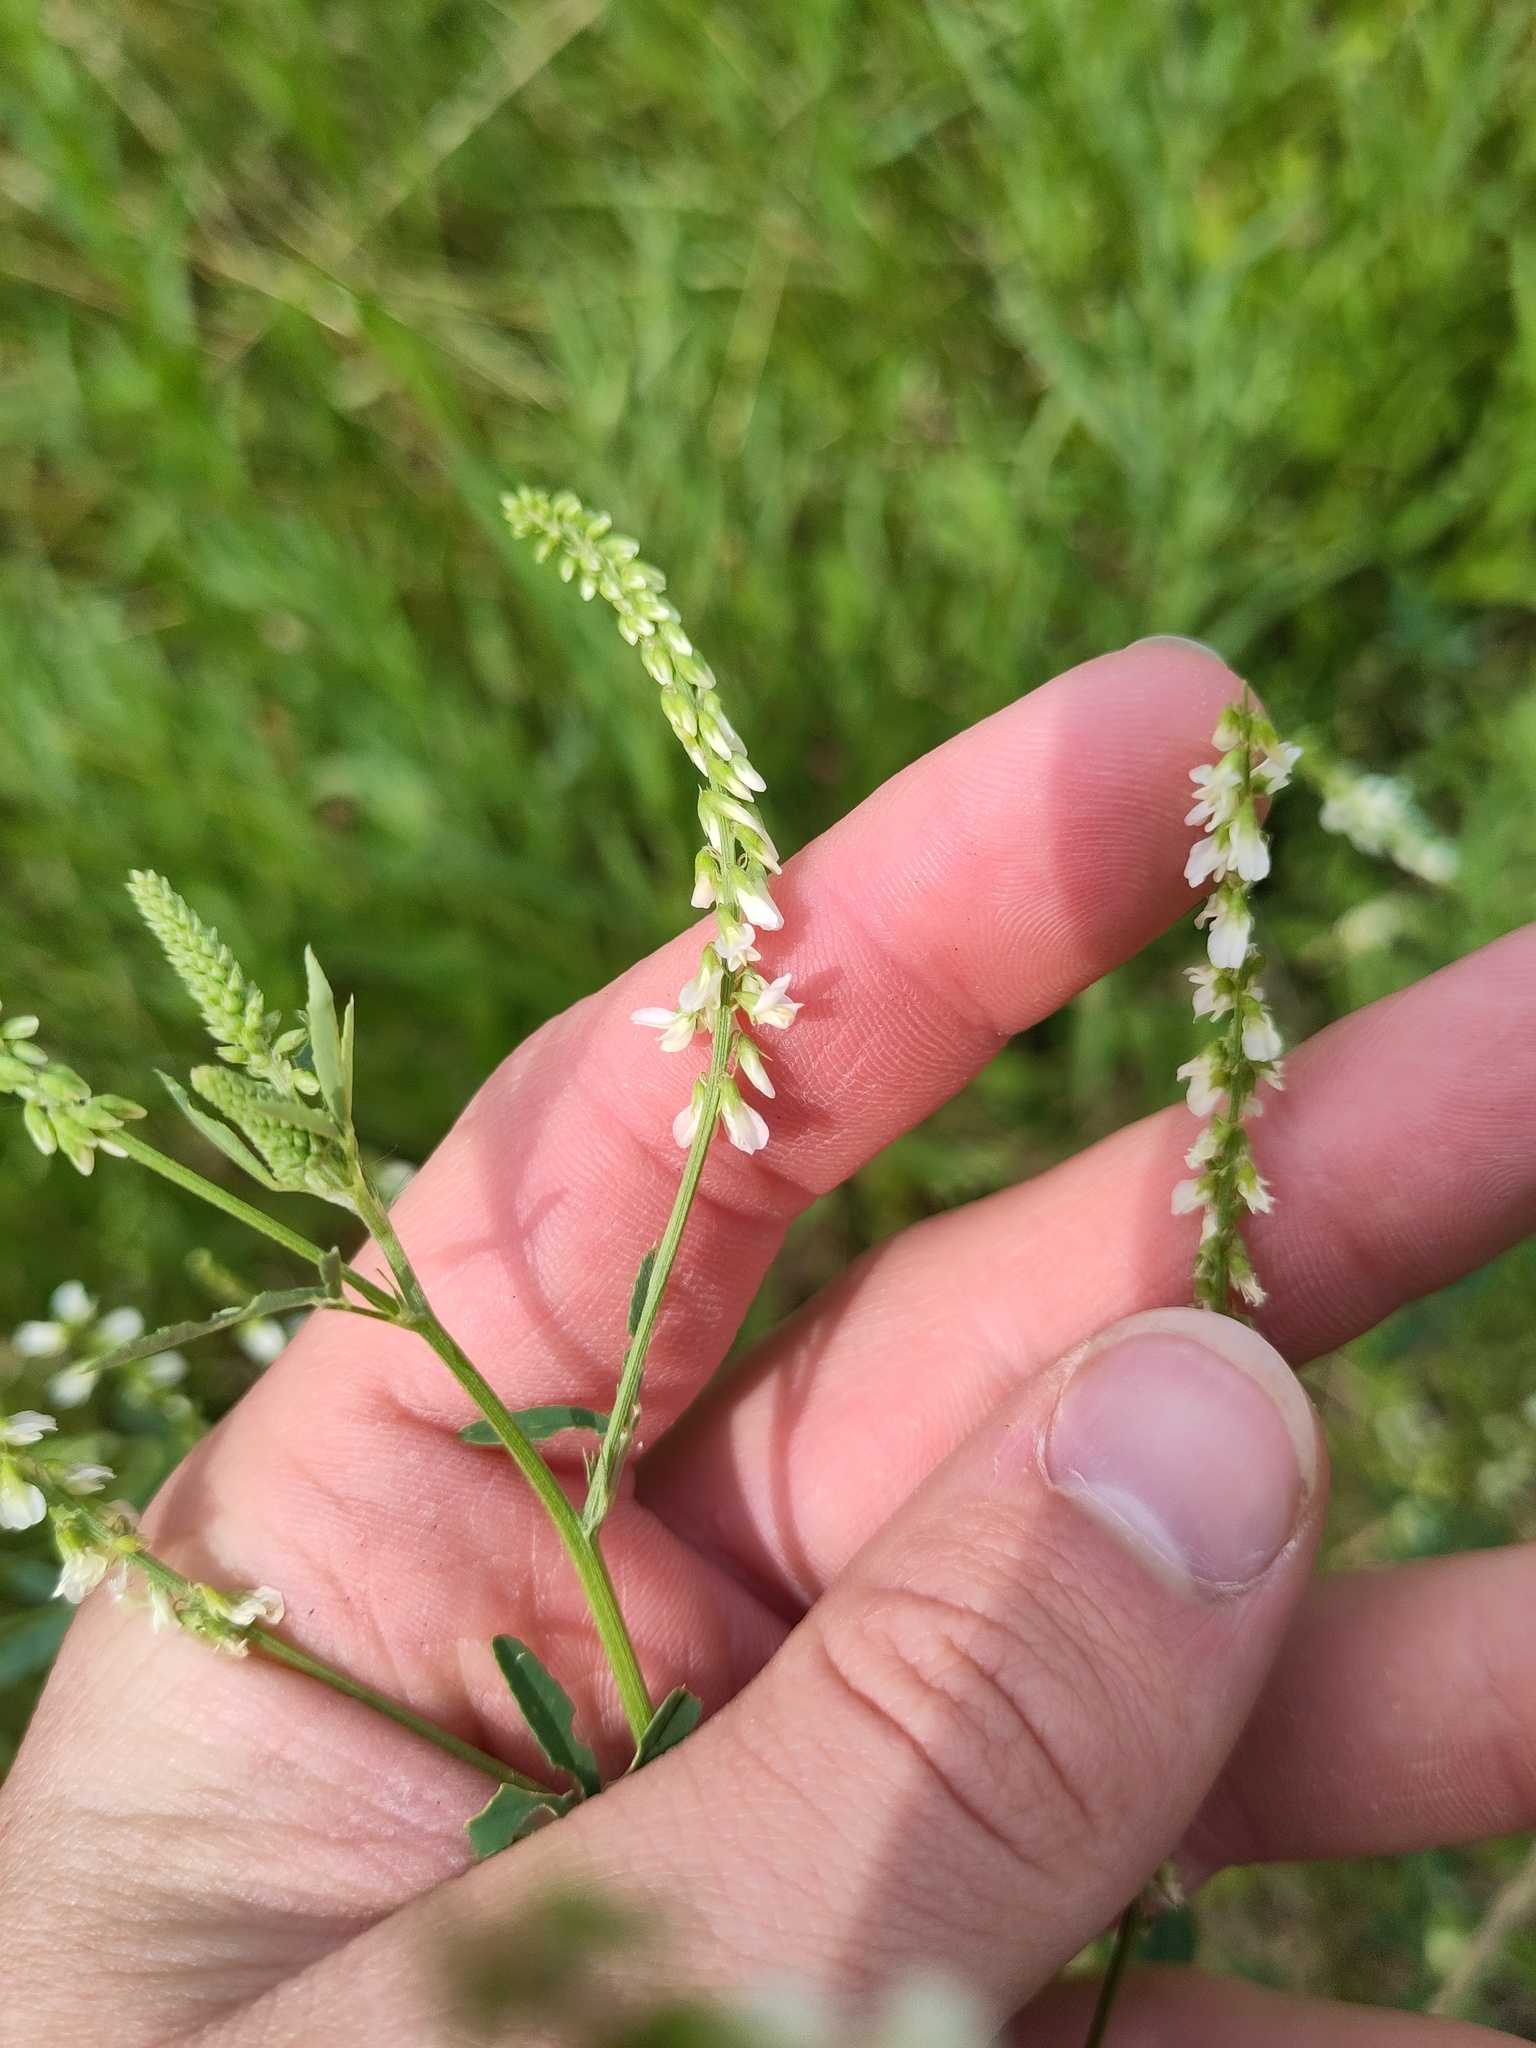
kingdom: Plantae
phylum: Tracheophyta
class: Magnoliopsida
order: Fabales
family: Fabaceae
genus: Melilotus
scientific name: Melilotus albus
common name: White melilot
